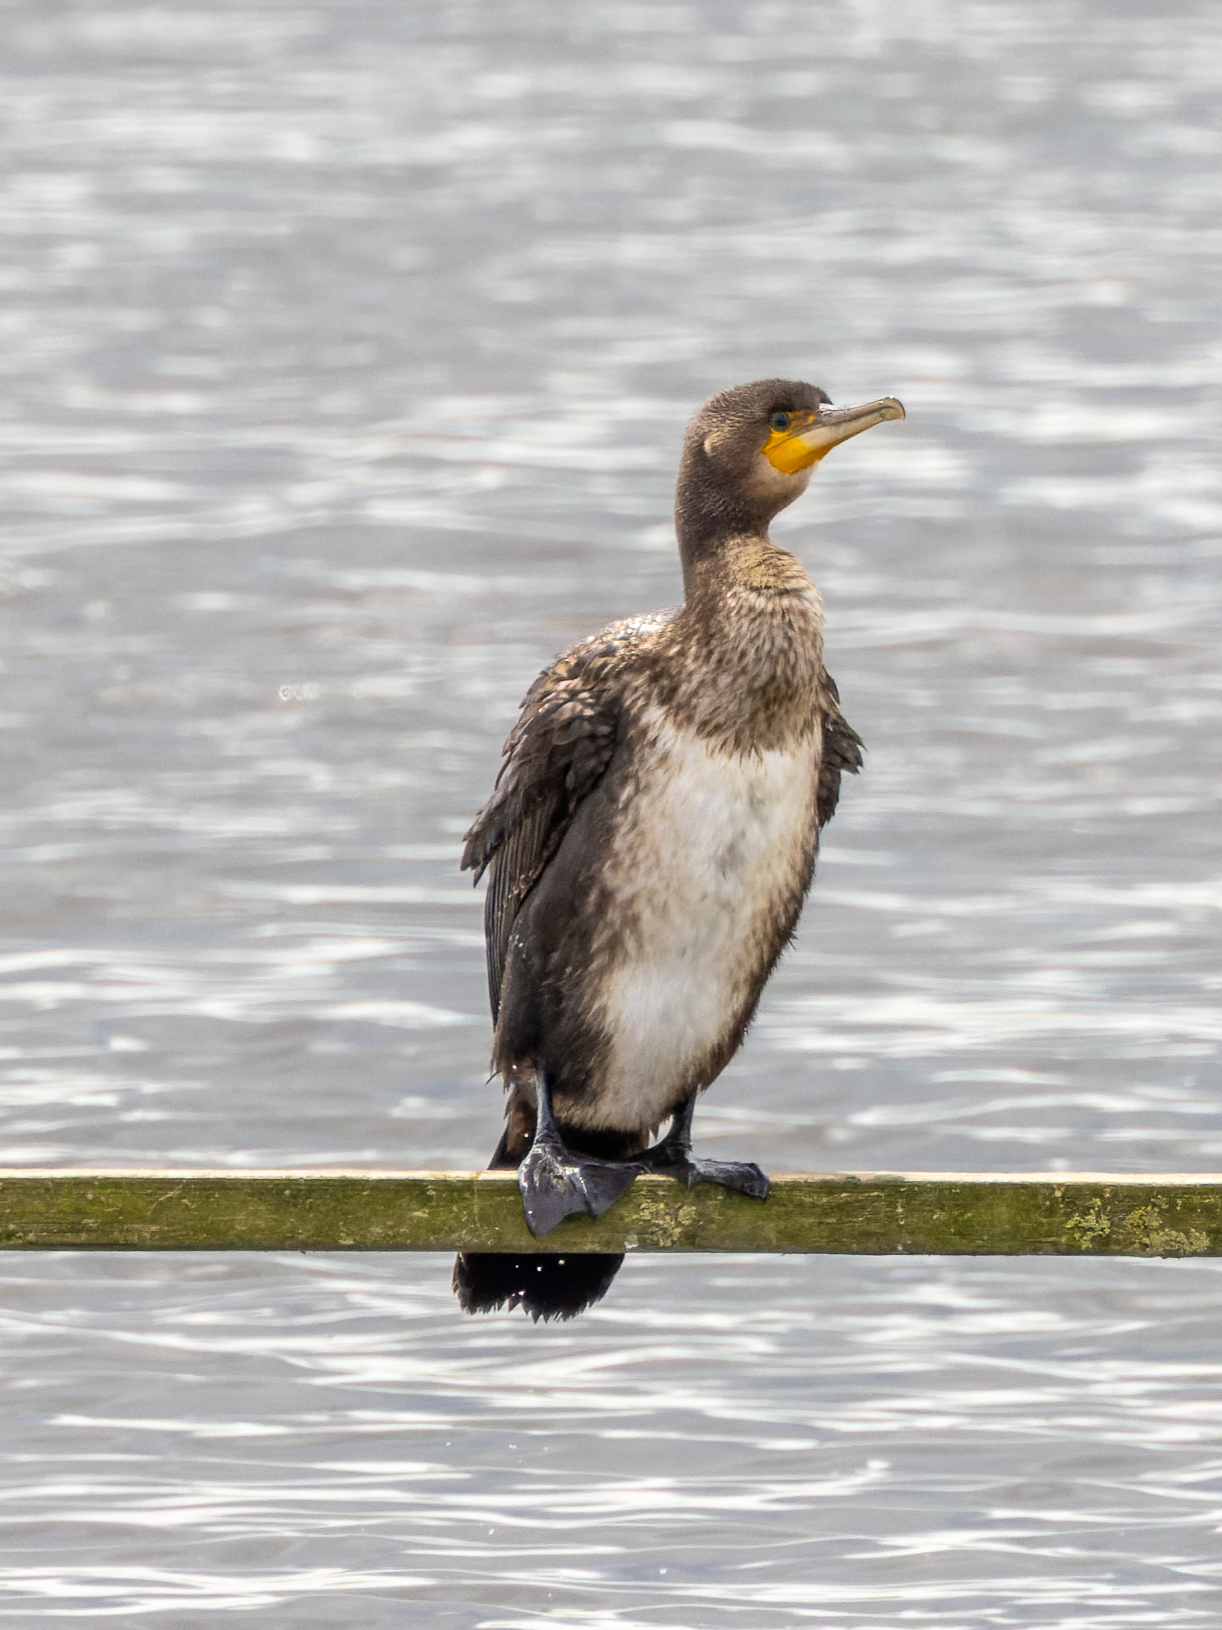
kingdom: Animalia
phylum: Chordata
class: Aves
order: Suliformes
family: Phalacrocoracidae
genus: Phalacrocorax
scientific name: Phalacrocorax carbo
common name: Great cormorant
